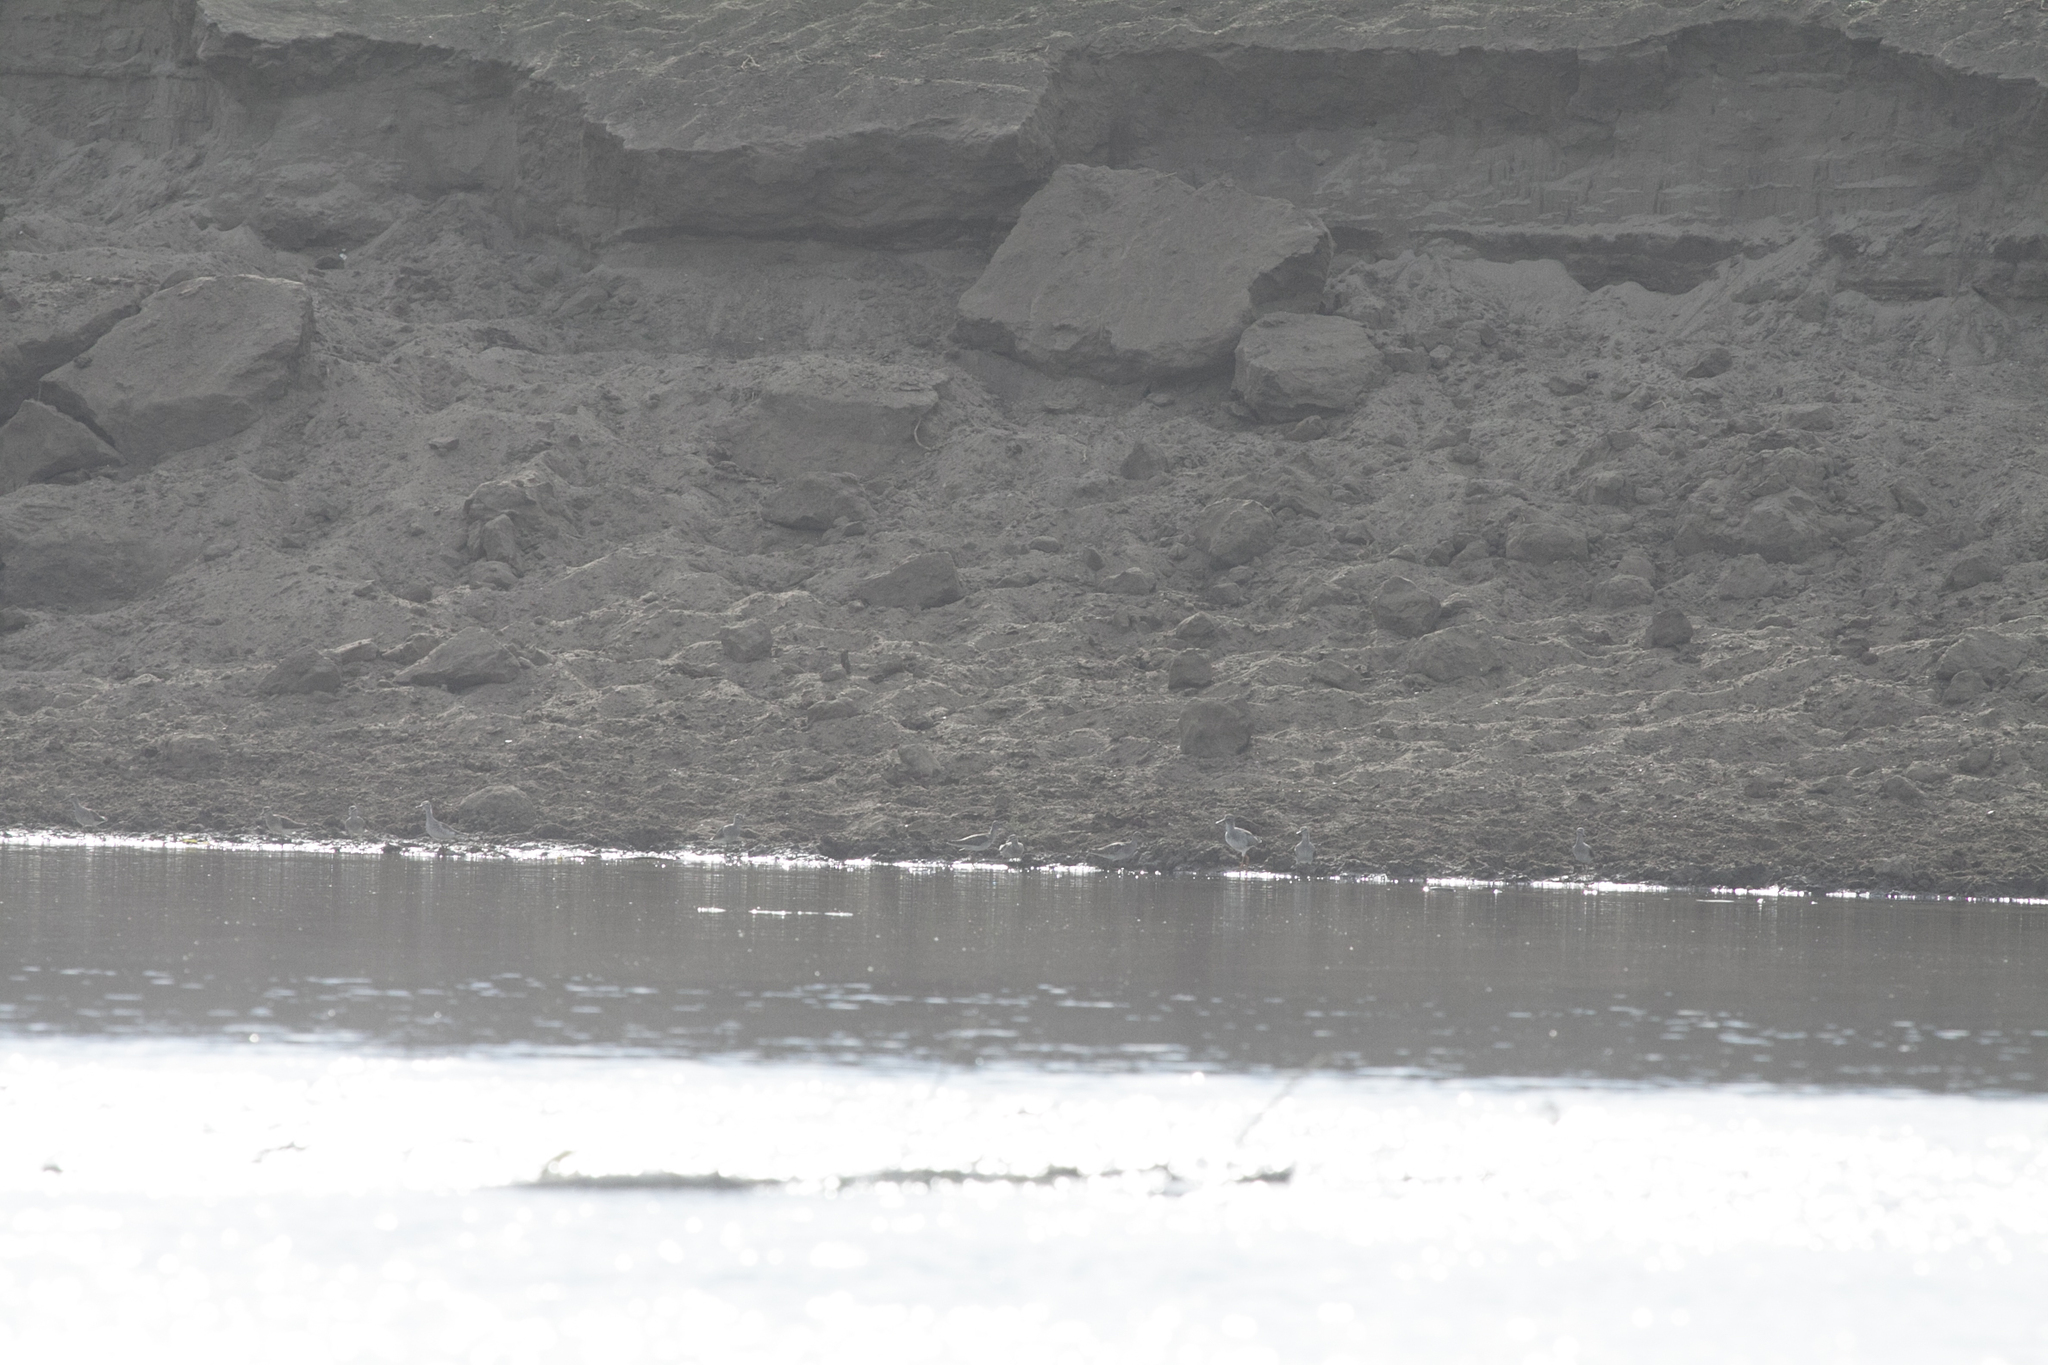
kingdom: Animalia
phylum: Chordata
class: Aves
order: Charadriiformes
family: Scolopacidae
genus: Tringa
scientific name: Tringa totanus
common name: Common redshank
